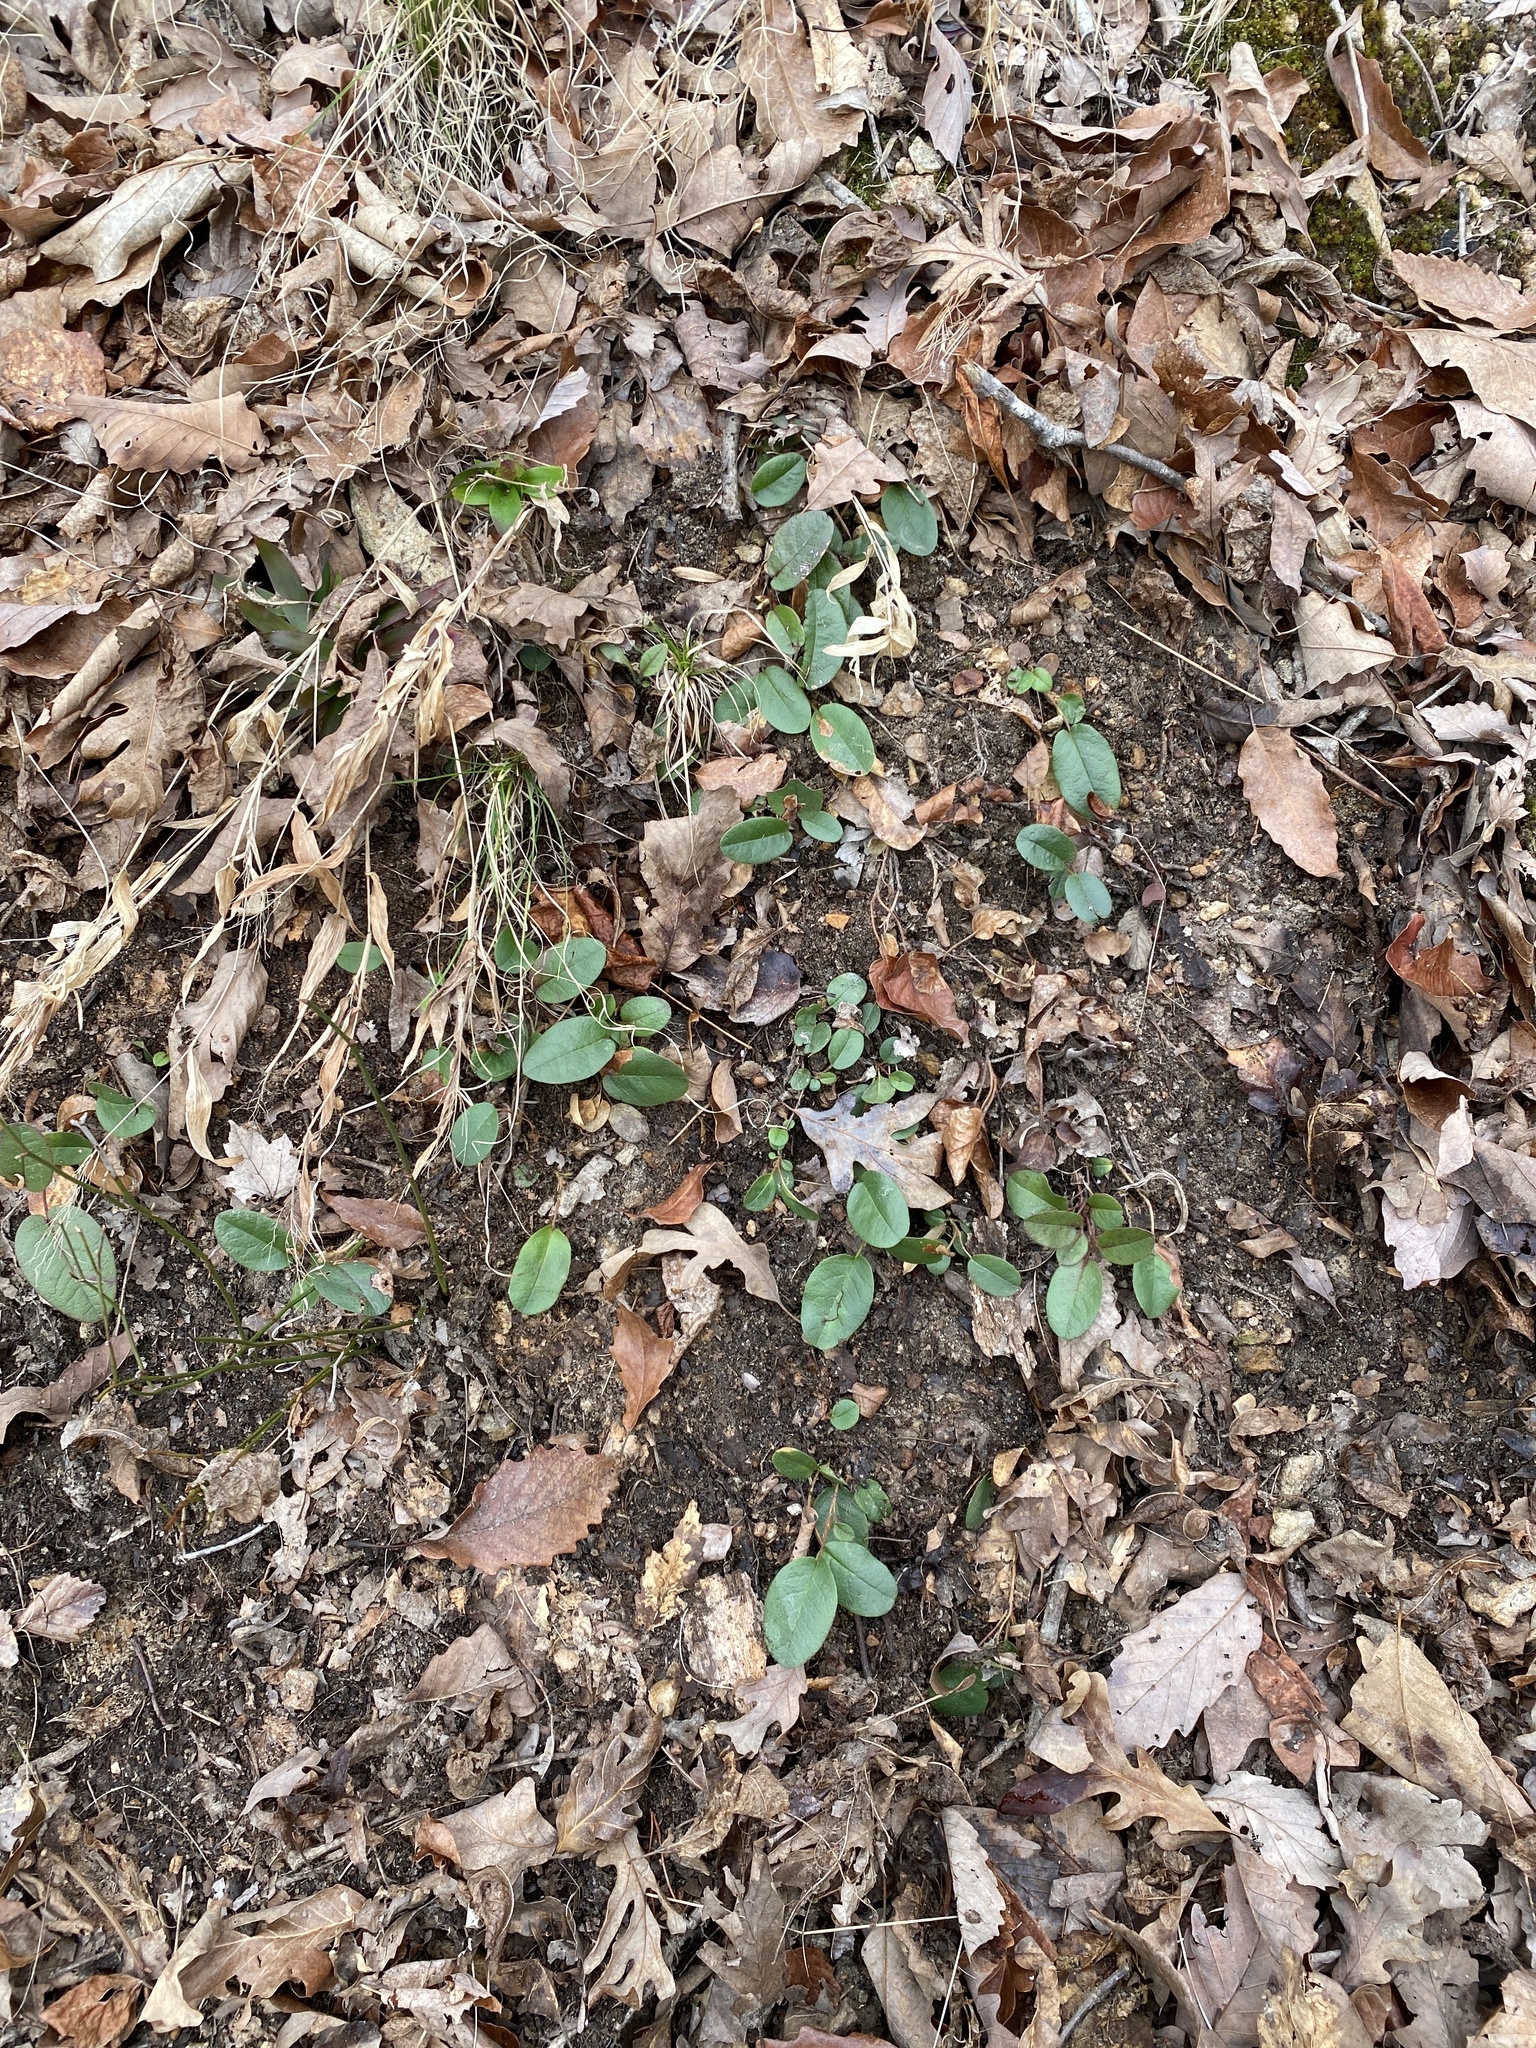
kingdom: Plantae
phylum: Tracheophyta
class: Magnoliopsida
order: Ericales
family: Ericaceae
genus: Epigaea
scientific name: Epigaea repens
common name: Gravelroot
